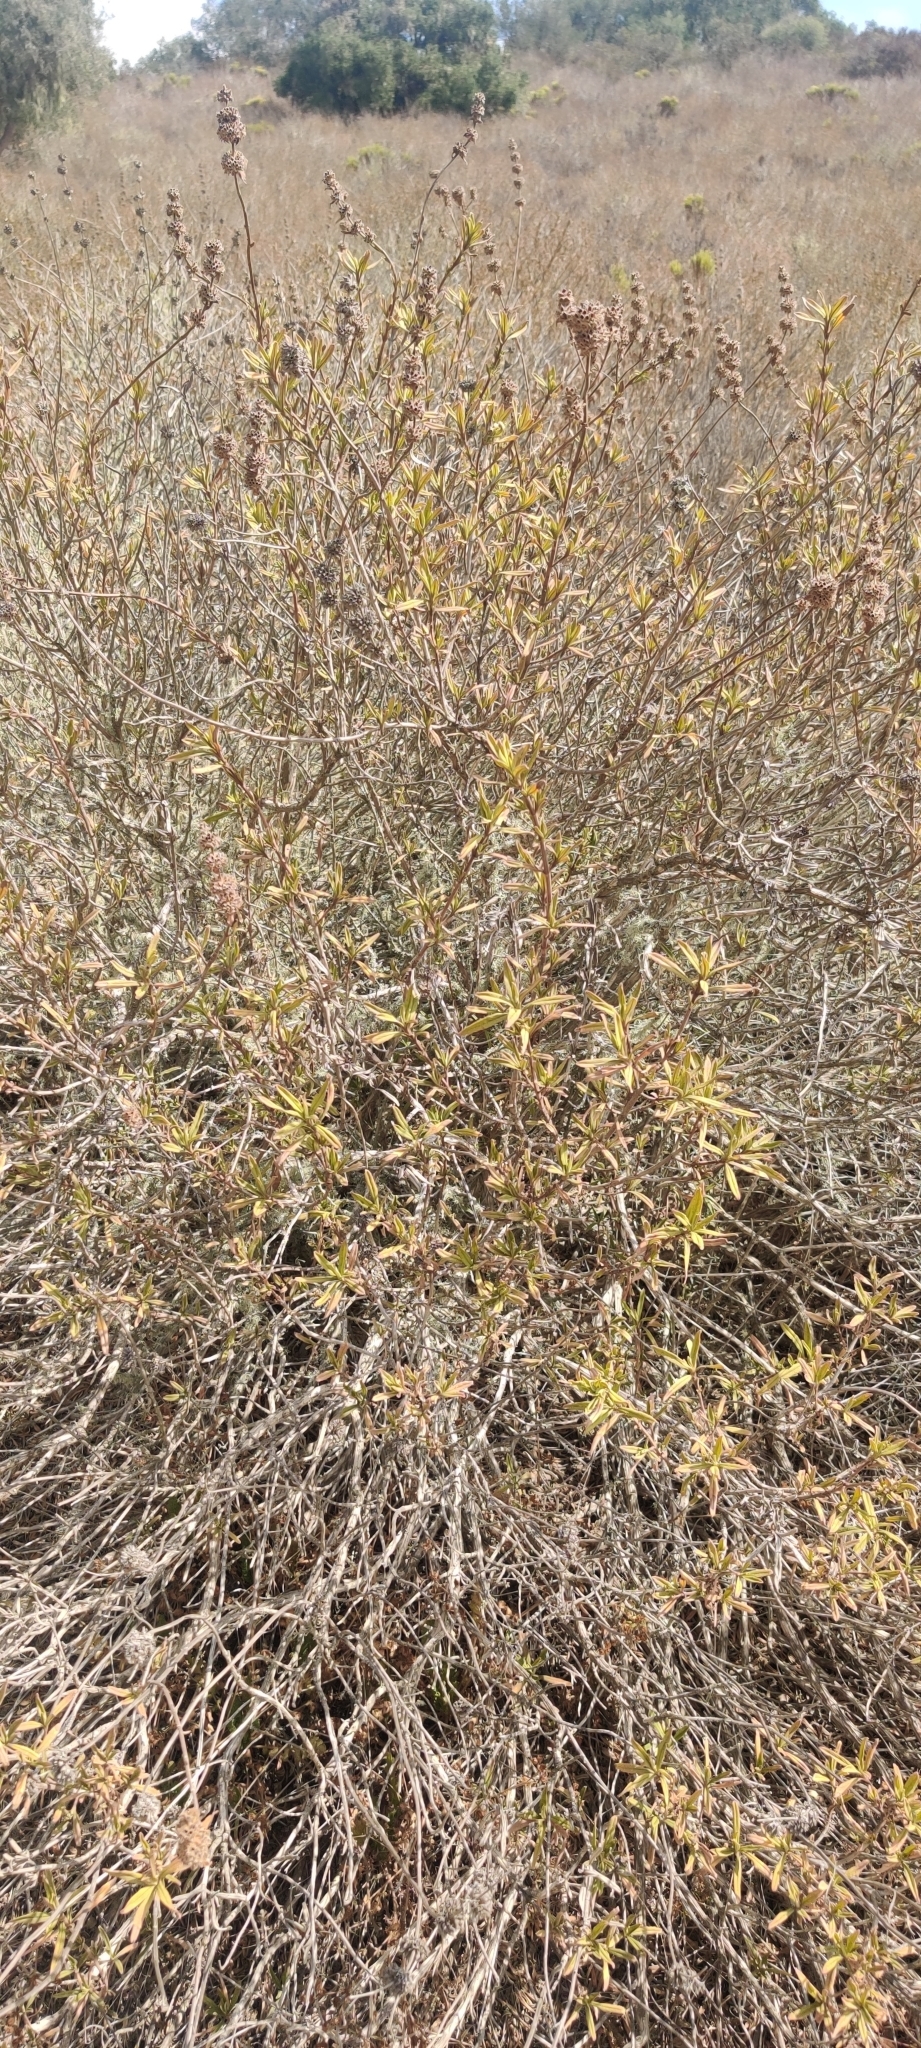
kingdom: Plantae
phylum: Tracheophyta
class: Magnoliopsida
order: Lamiales
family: Lamiaceae
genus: Salvia
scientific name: Salvia mellifera
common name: Black sage
